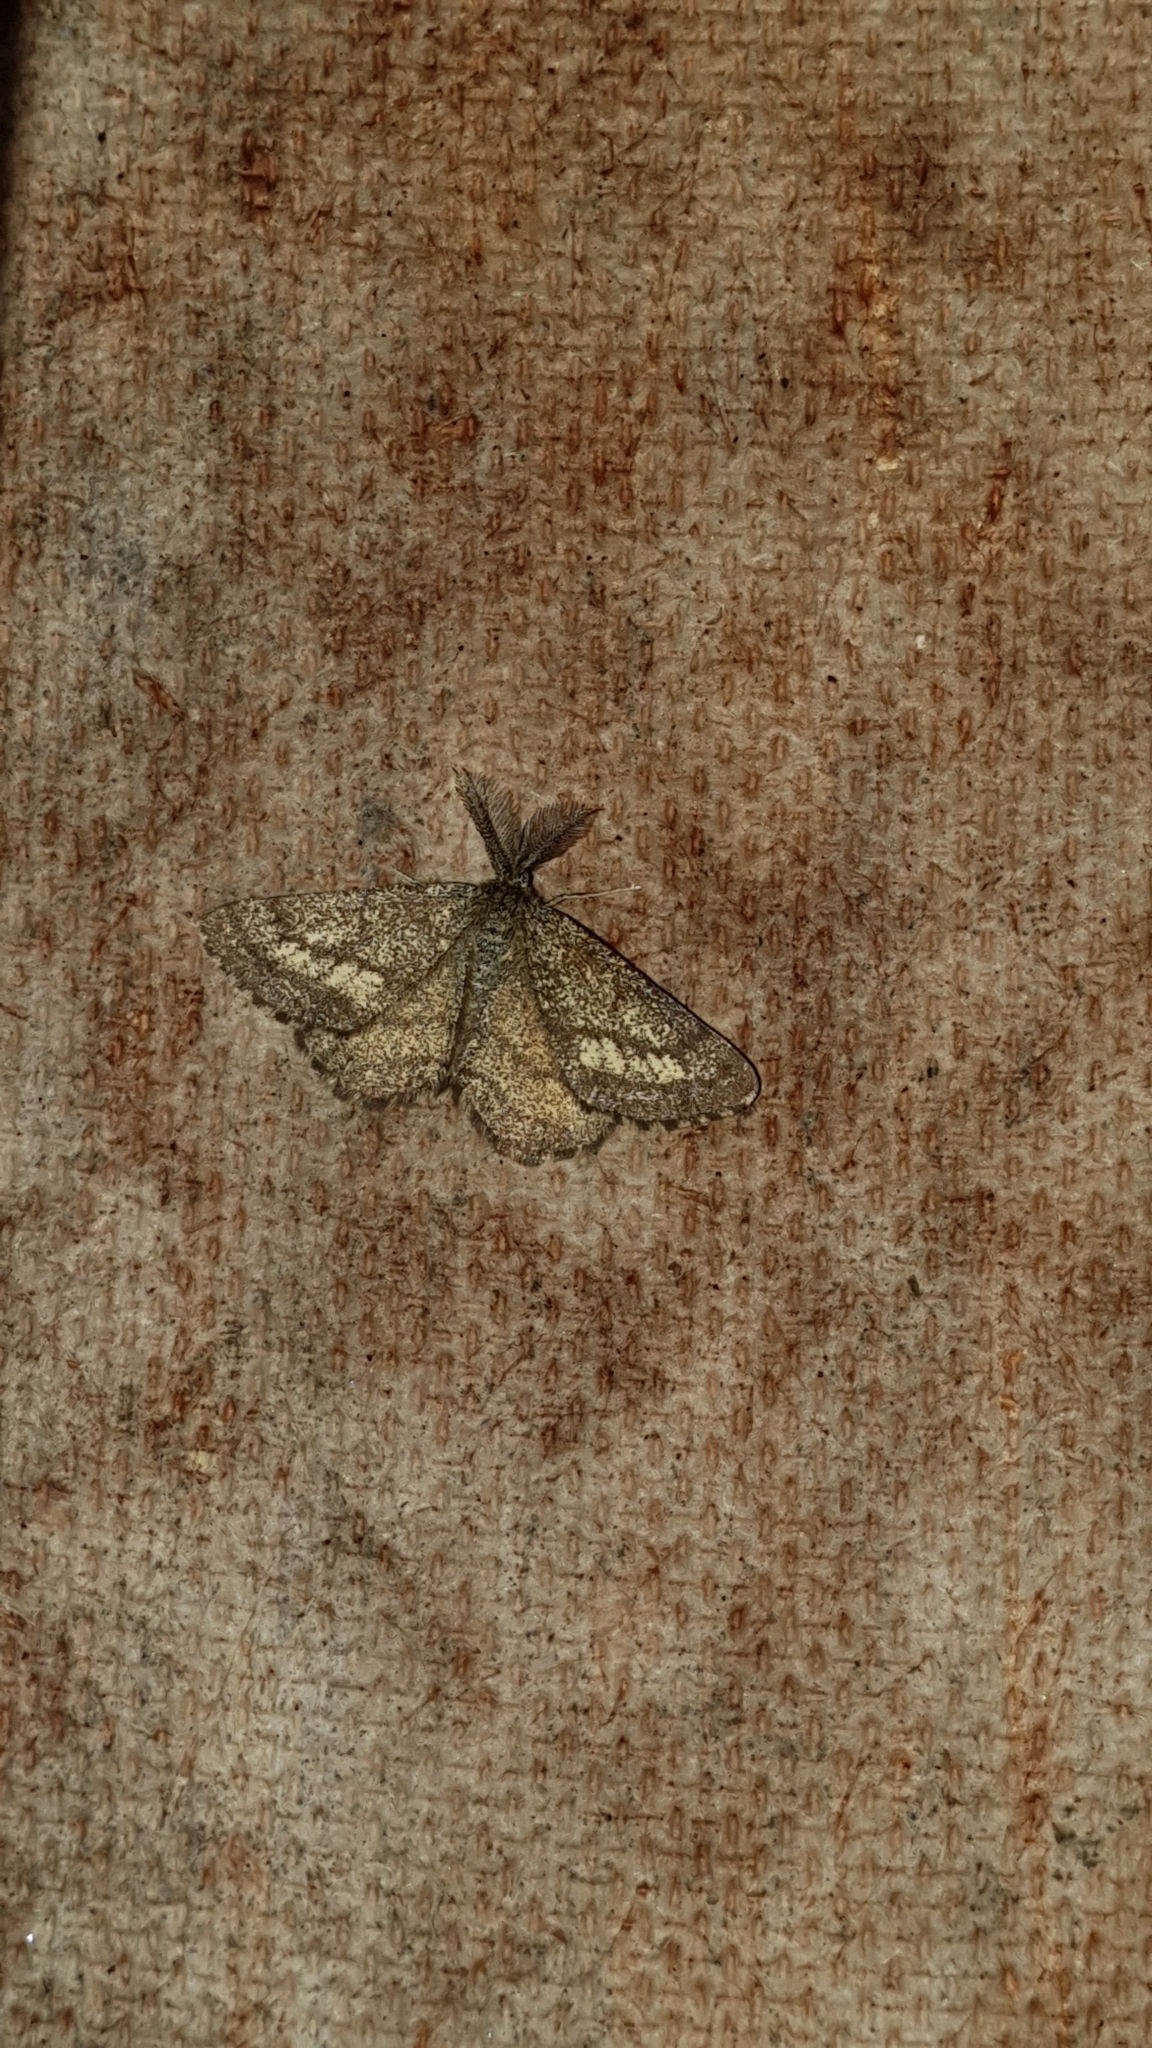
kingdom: Animalia
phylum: Arthropoda
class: Insecta
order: Lepidoptera
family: Geometridae
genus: Ematurga
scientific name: Ematurga atomaria
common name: Common heath
